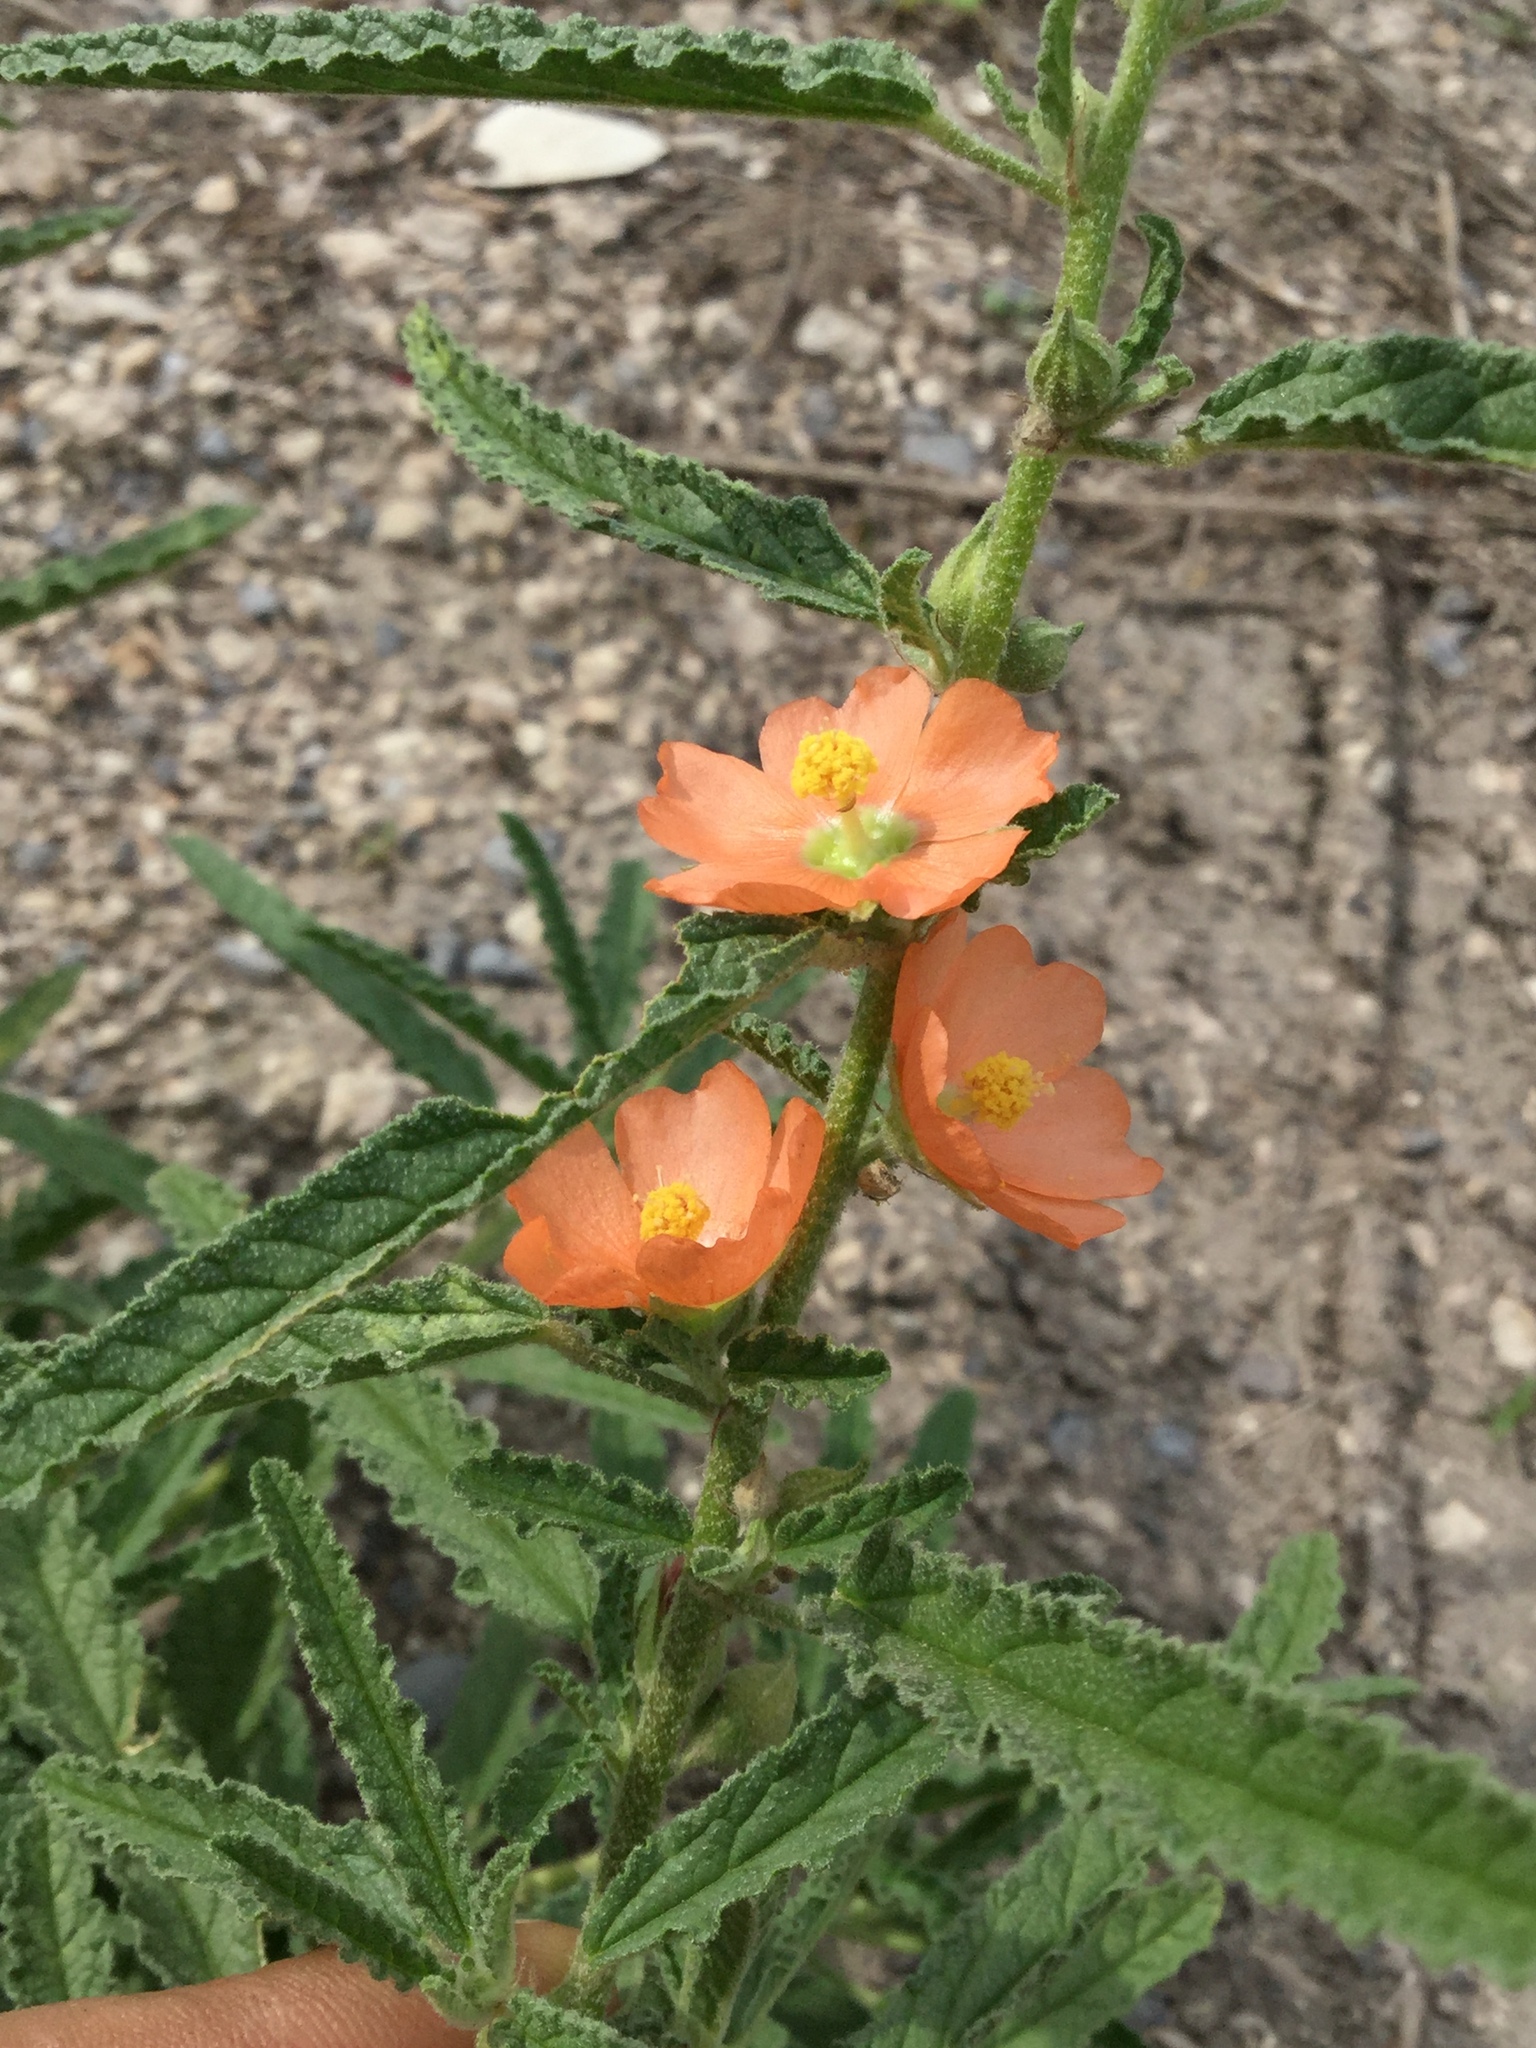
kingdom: Plantae
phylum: Tracheophyta
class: Magnoliopsida
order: Malvales
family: Malvaceae
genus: Sphaeralcea
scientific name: Sphaeralcea angustifolia
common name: Copper globe-mallow
